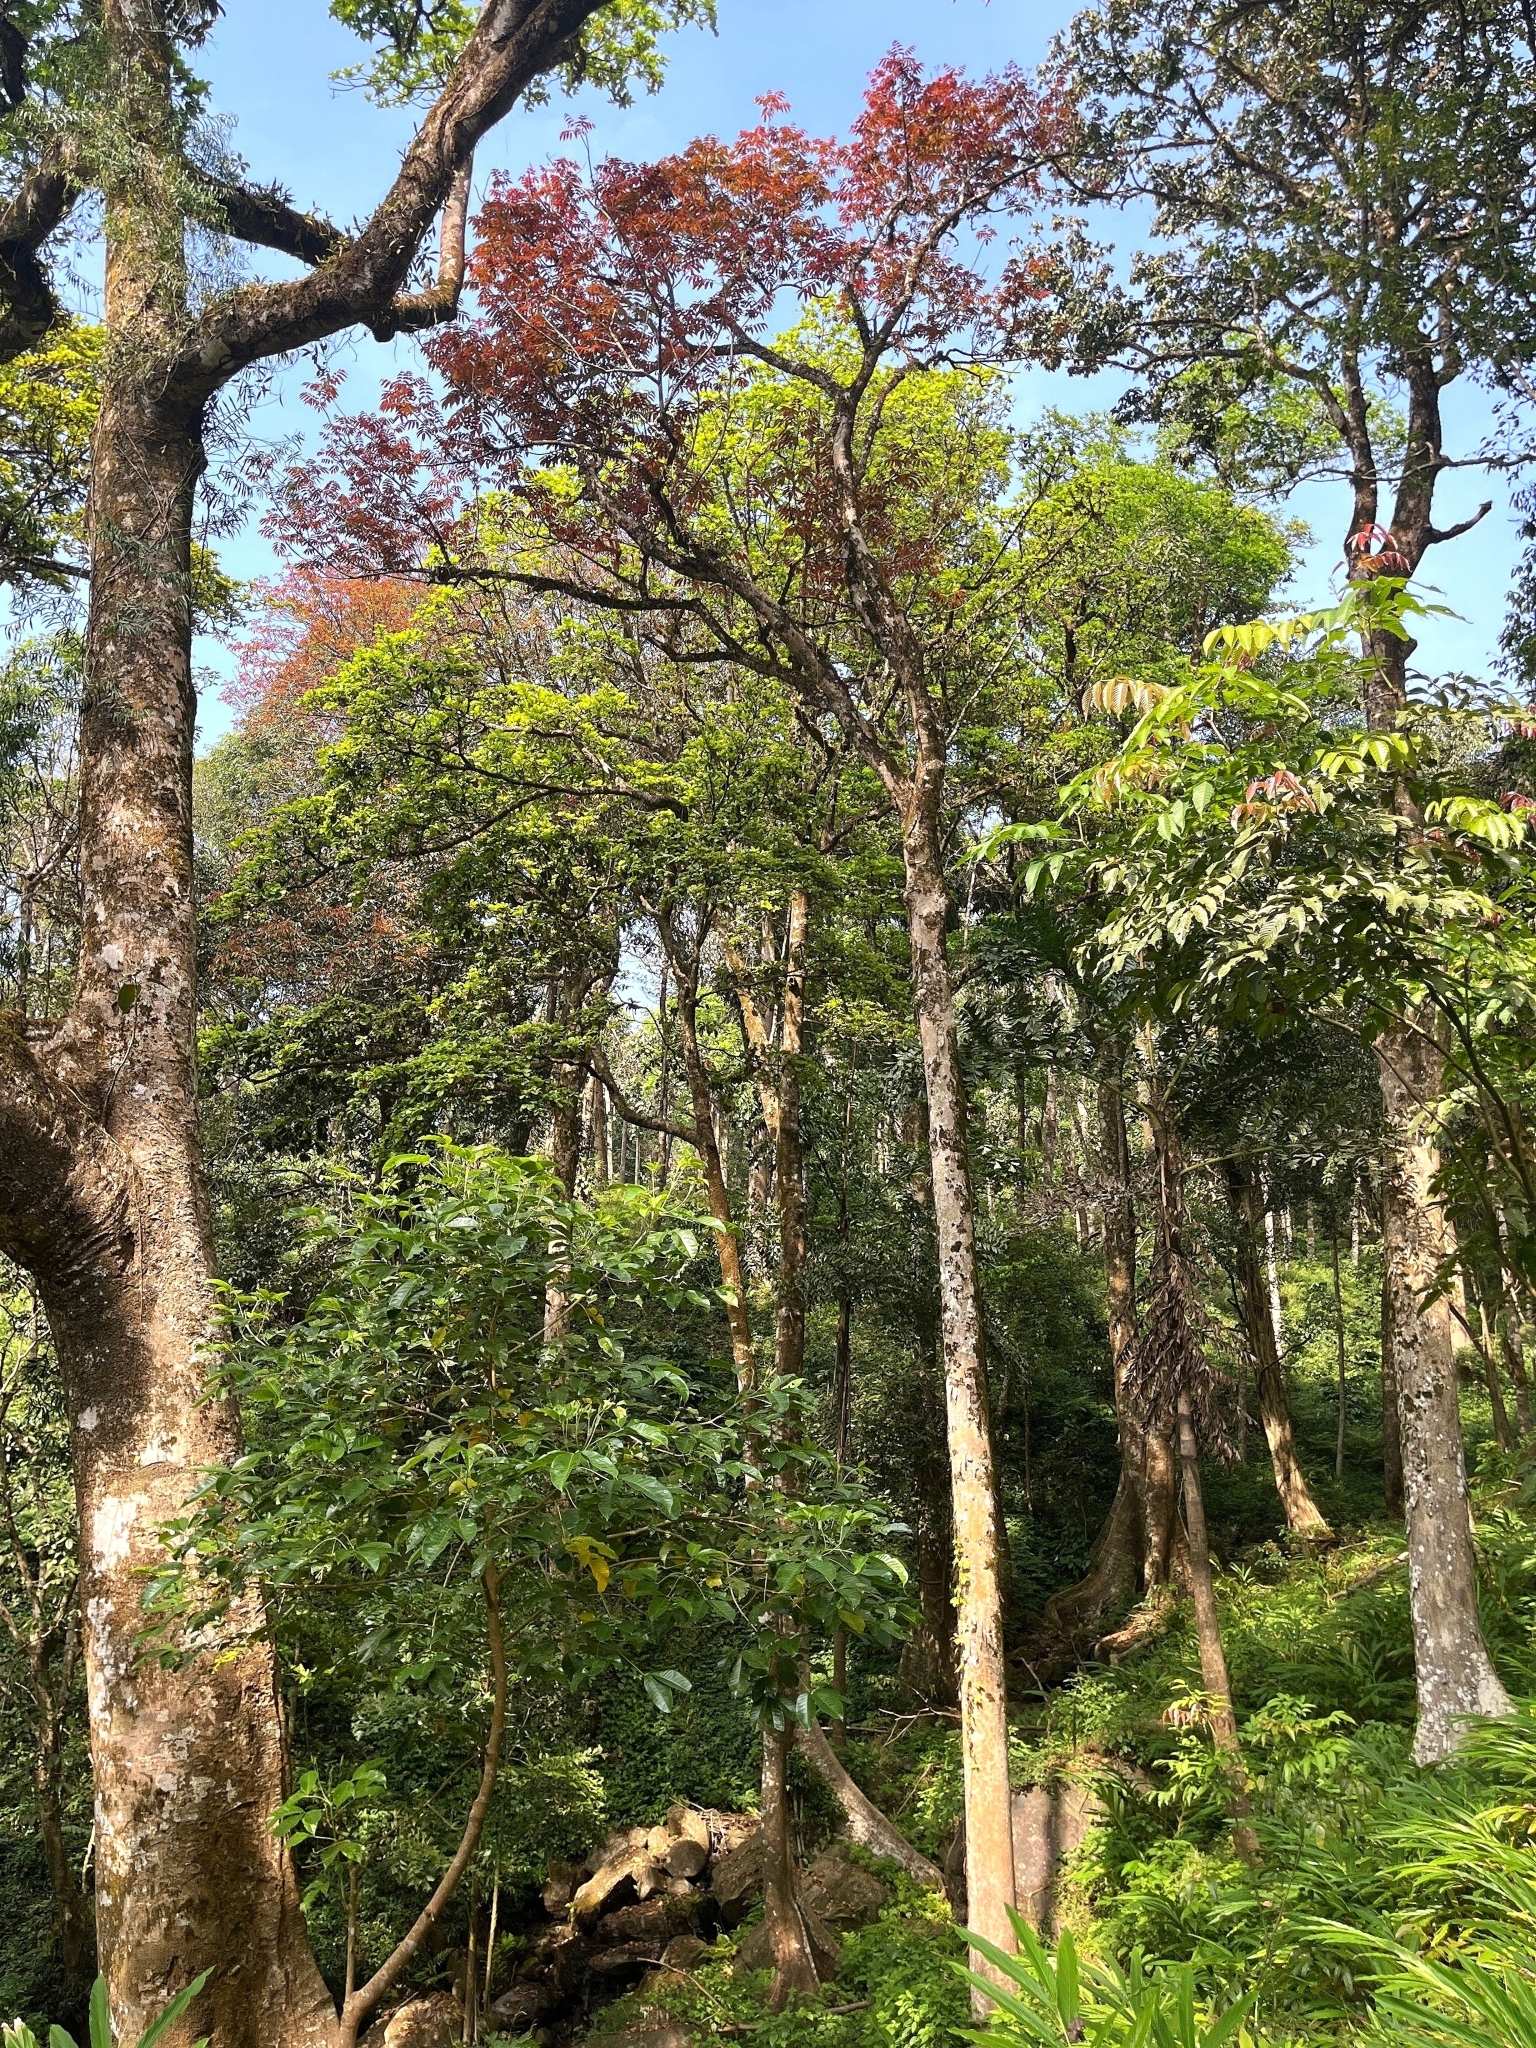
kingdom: Plantae
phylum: Tracheophyta
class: Magnoliopsida
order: Sapindales
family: Burseraceae
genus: Canarium
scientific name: Canarium strictum
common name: Indian white-mahogany
